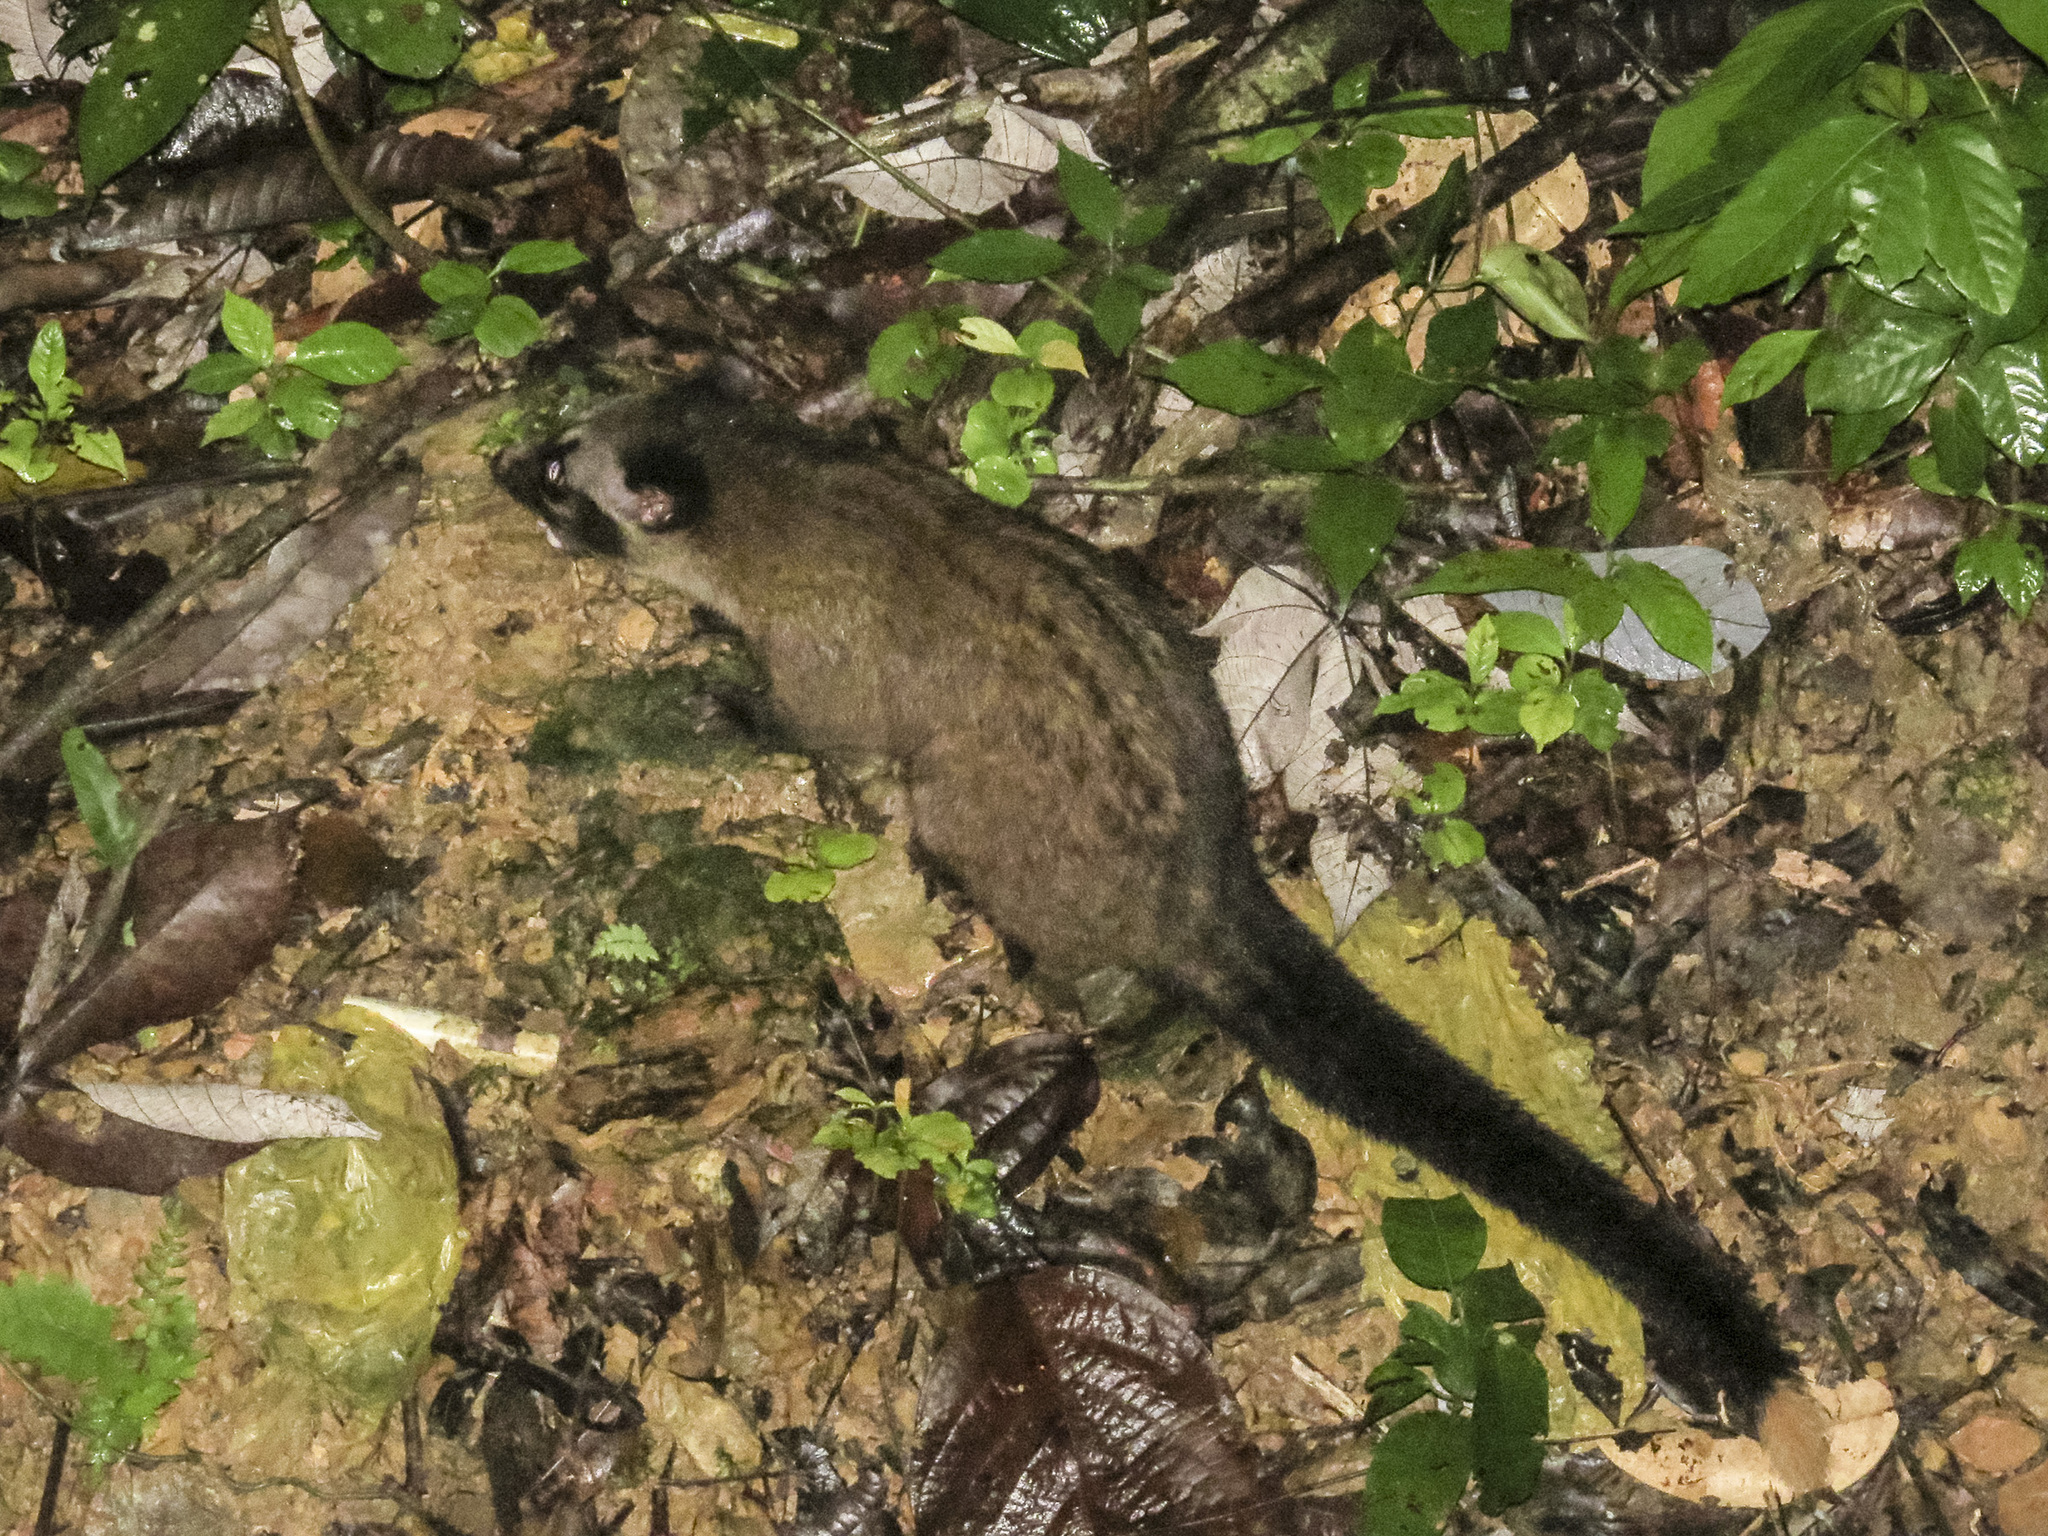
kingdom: Animalia
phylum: Chordata
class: Mammalia
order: Carnivora
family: Viverridae
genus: Paradoxurus
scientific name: Paradoxurus hermaphroditus
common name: Common palm civet
